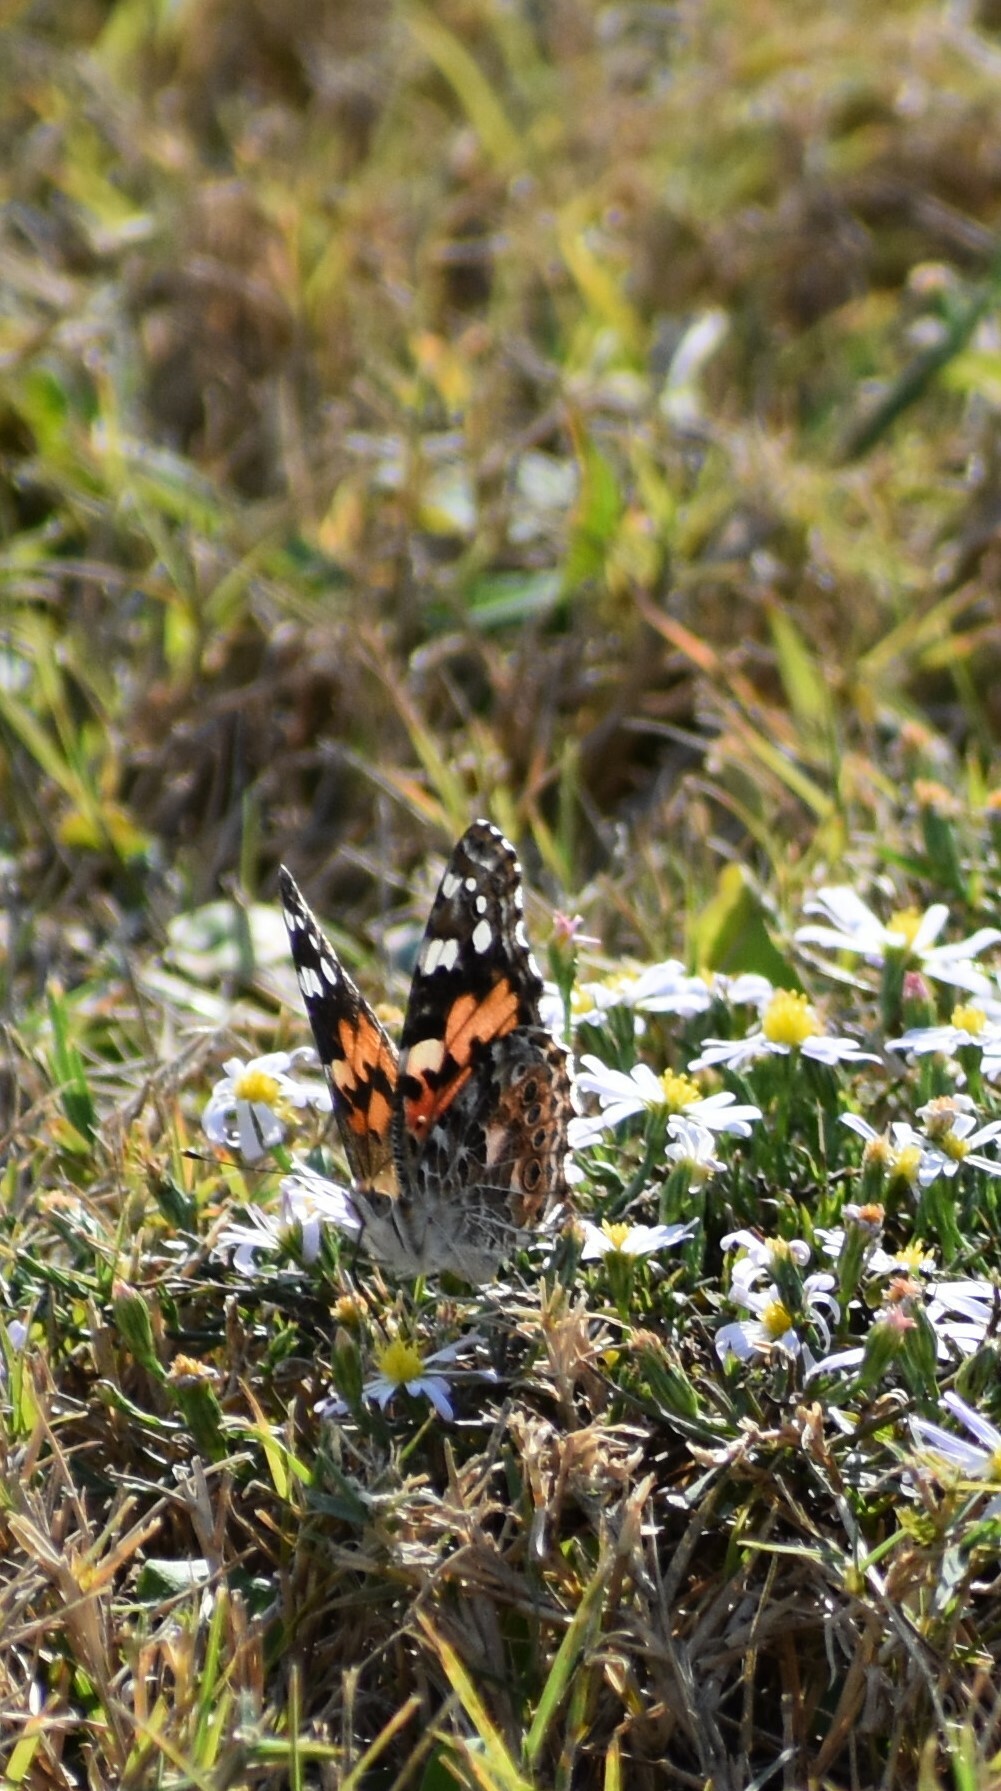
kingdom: Animalia
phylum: Arthropoda
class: Insecta
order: Lepidoptera
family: Nymphalidae
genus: Vanessa
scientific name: Vanessa cardui
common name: Painted lady
